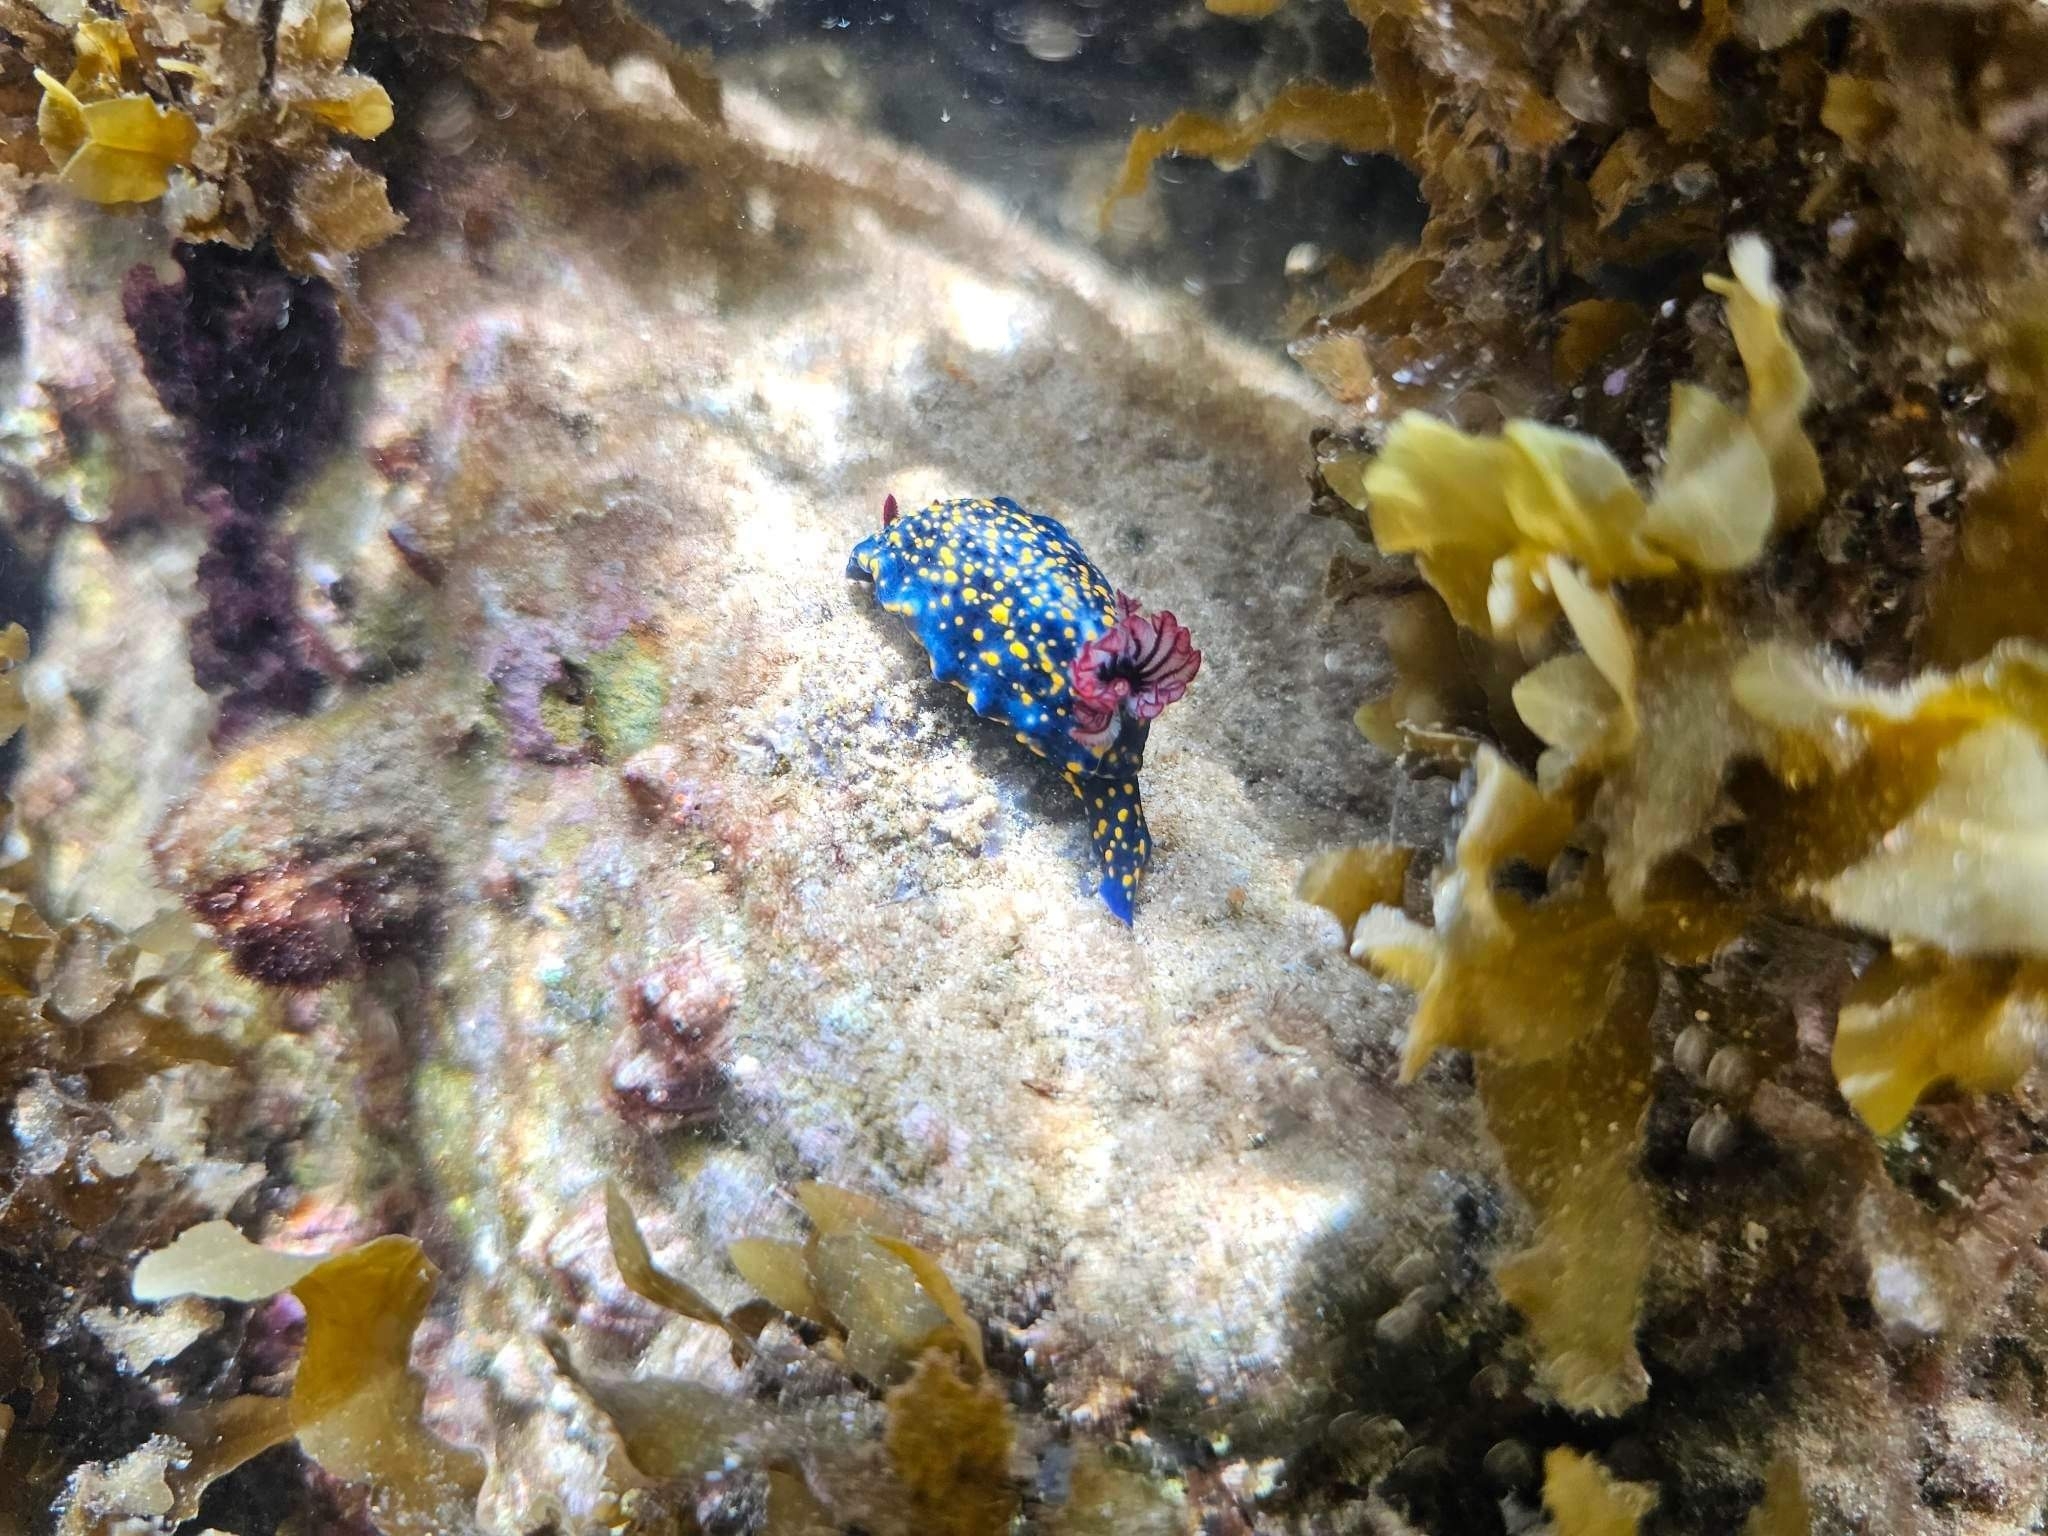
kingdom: Animalia
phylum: Mollusca
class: Gastropoda
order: Nudibranchia
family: Chromodorididae
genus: Hypselodoris
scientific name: Hypselodoris obscura
